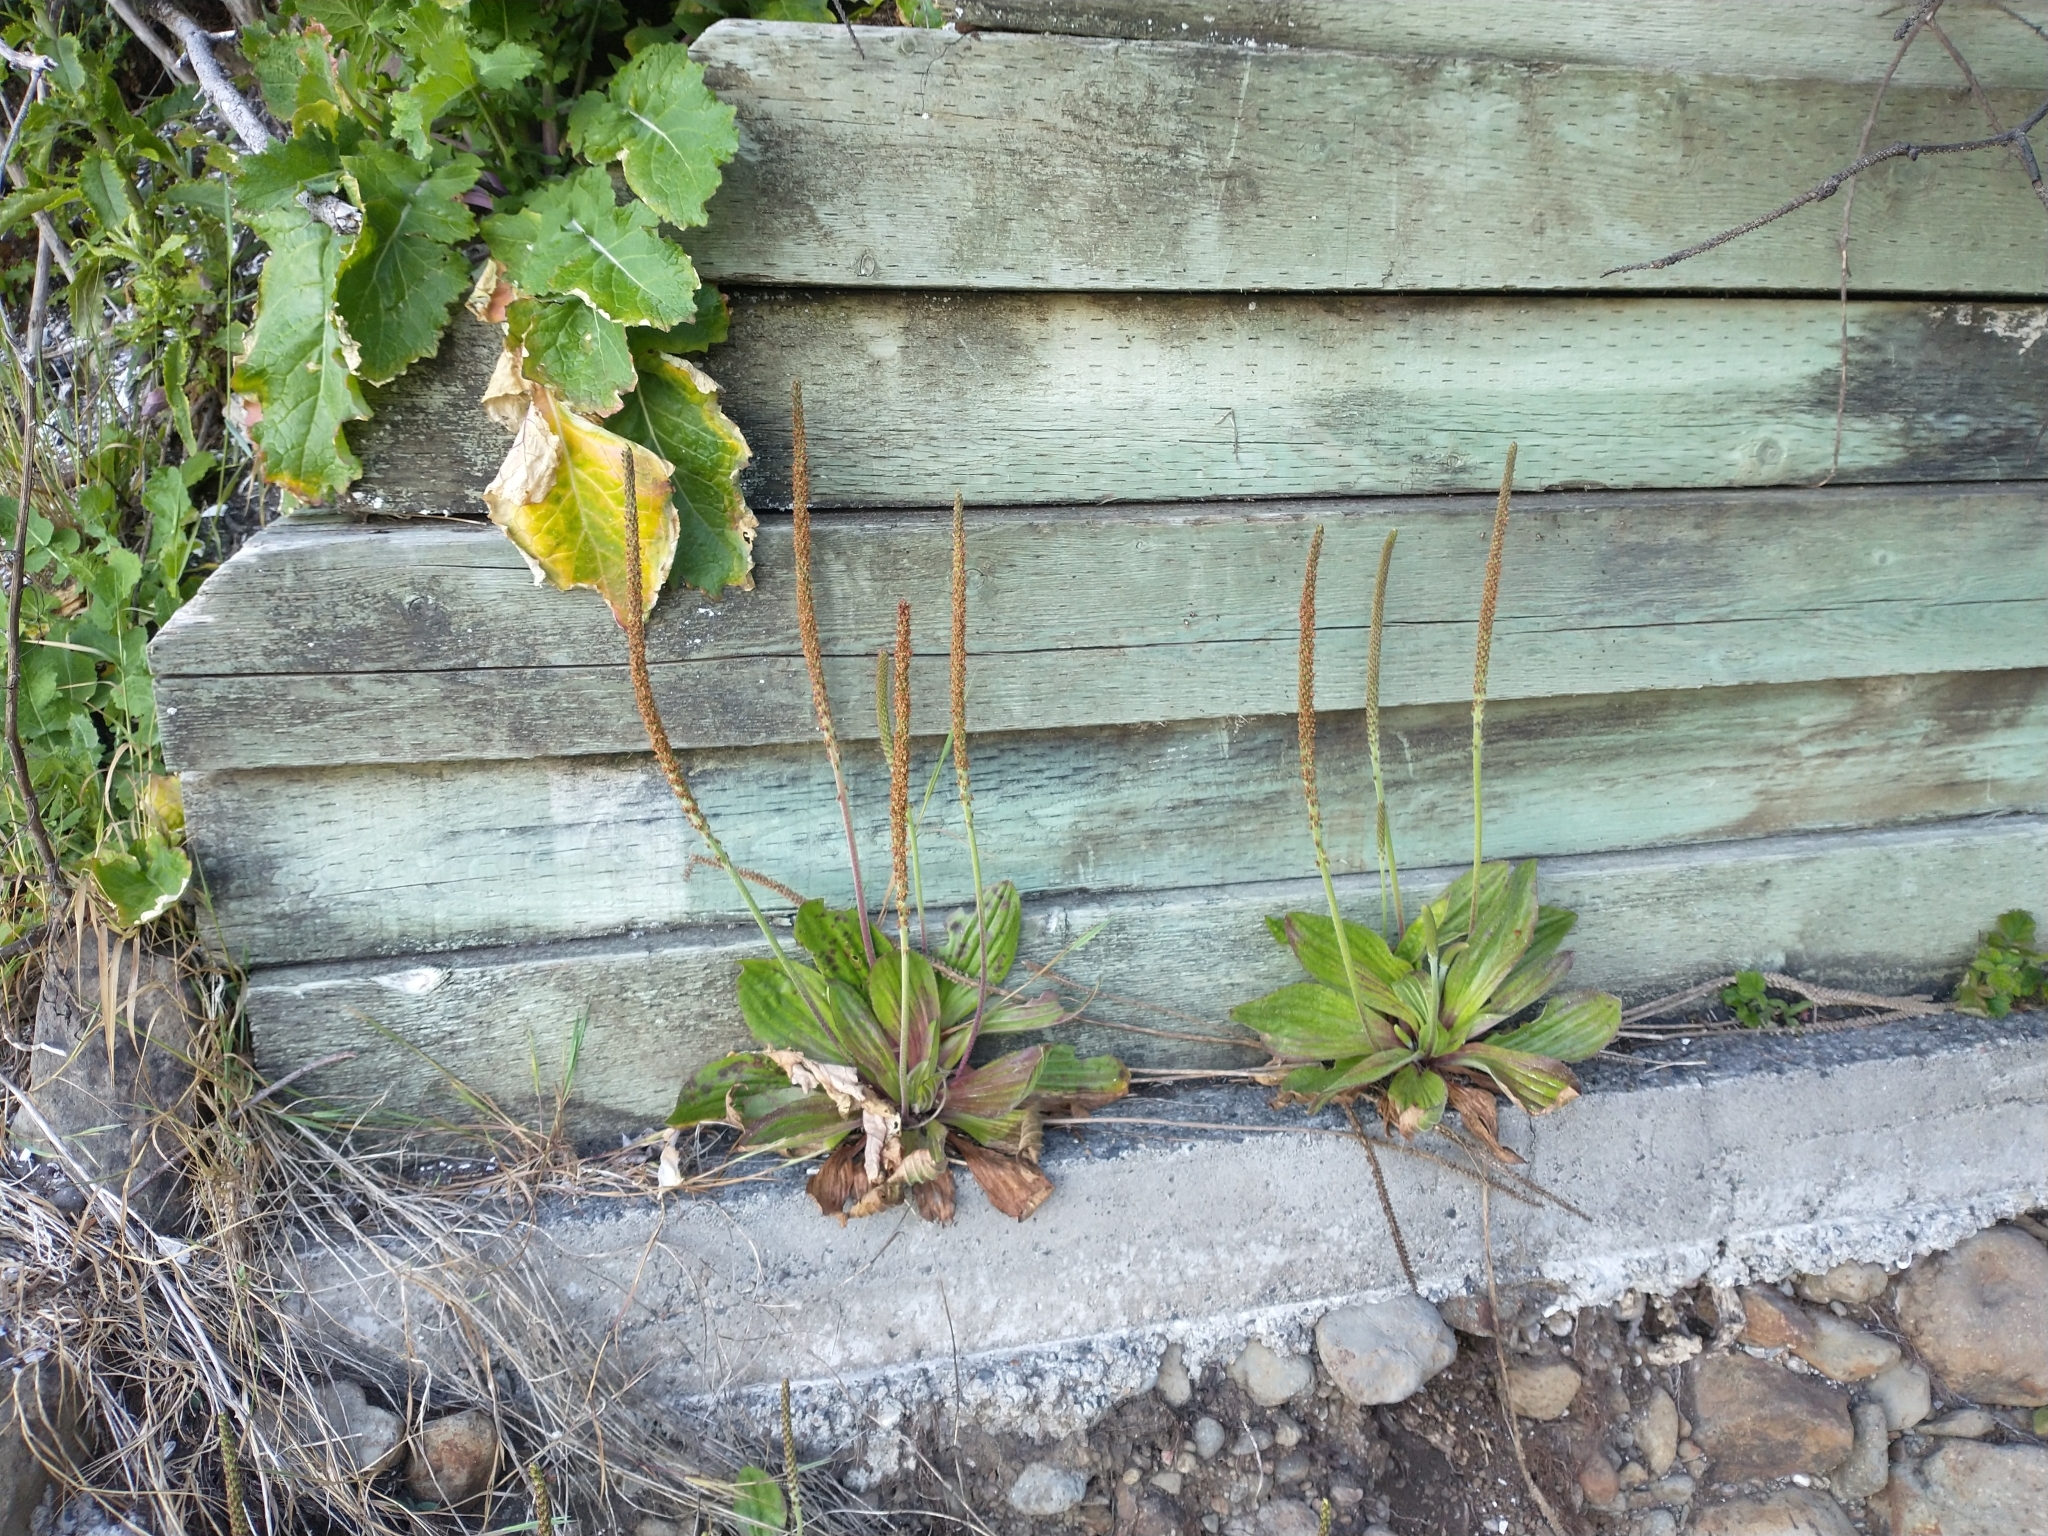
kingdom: Plantae
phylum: Tracheophyta
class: Magnoliopsida
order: Lamiales
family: Plantaginaceae
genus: Plantago
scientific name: Plantago subnuda
